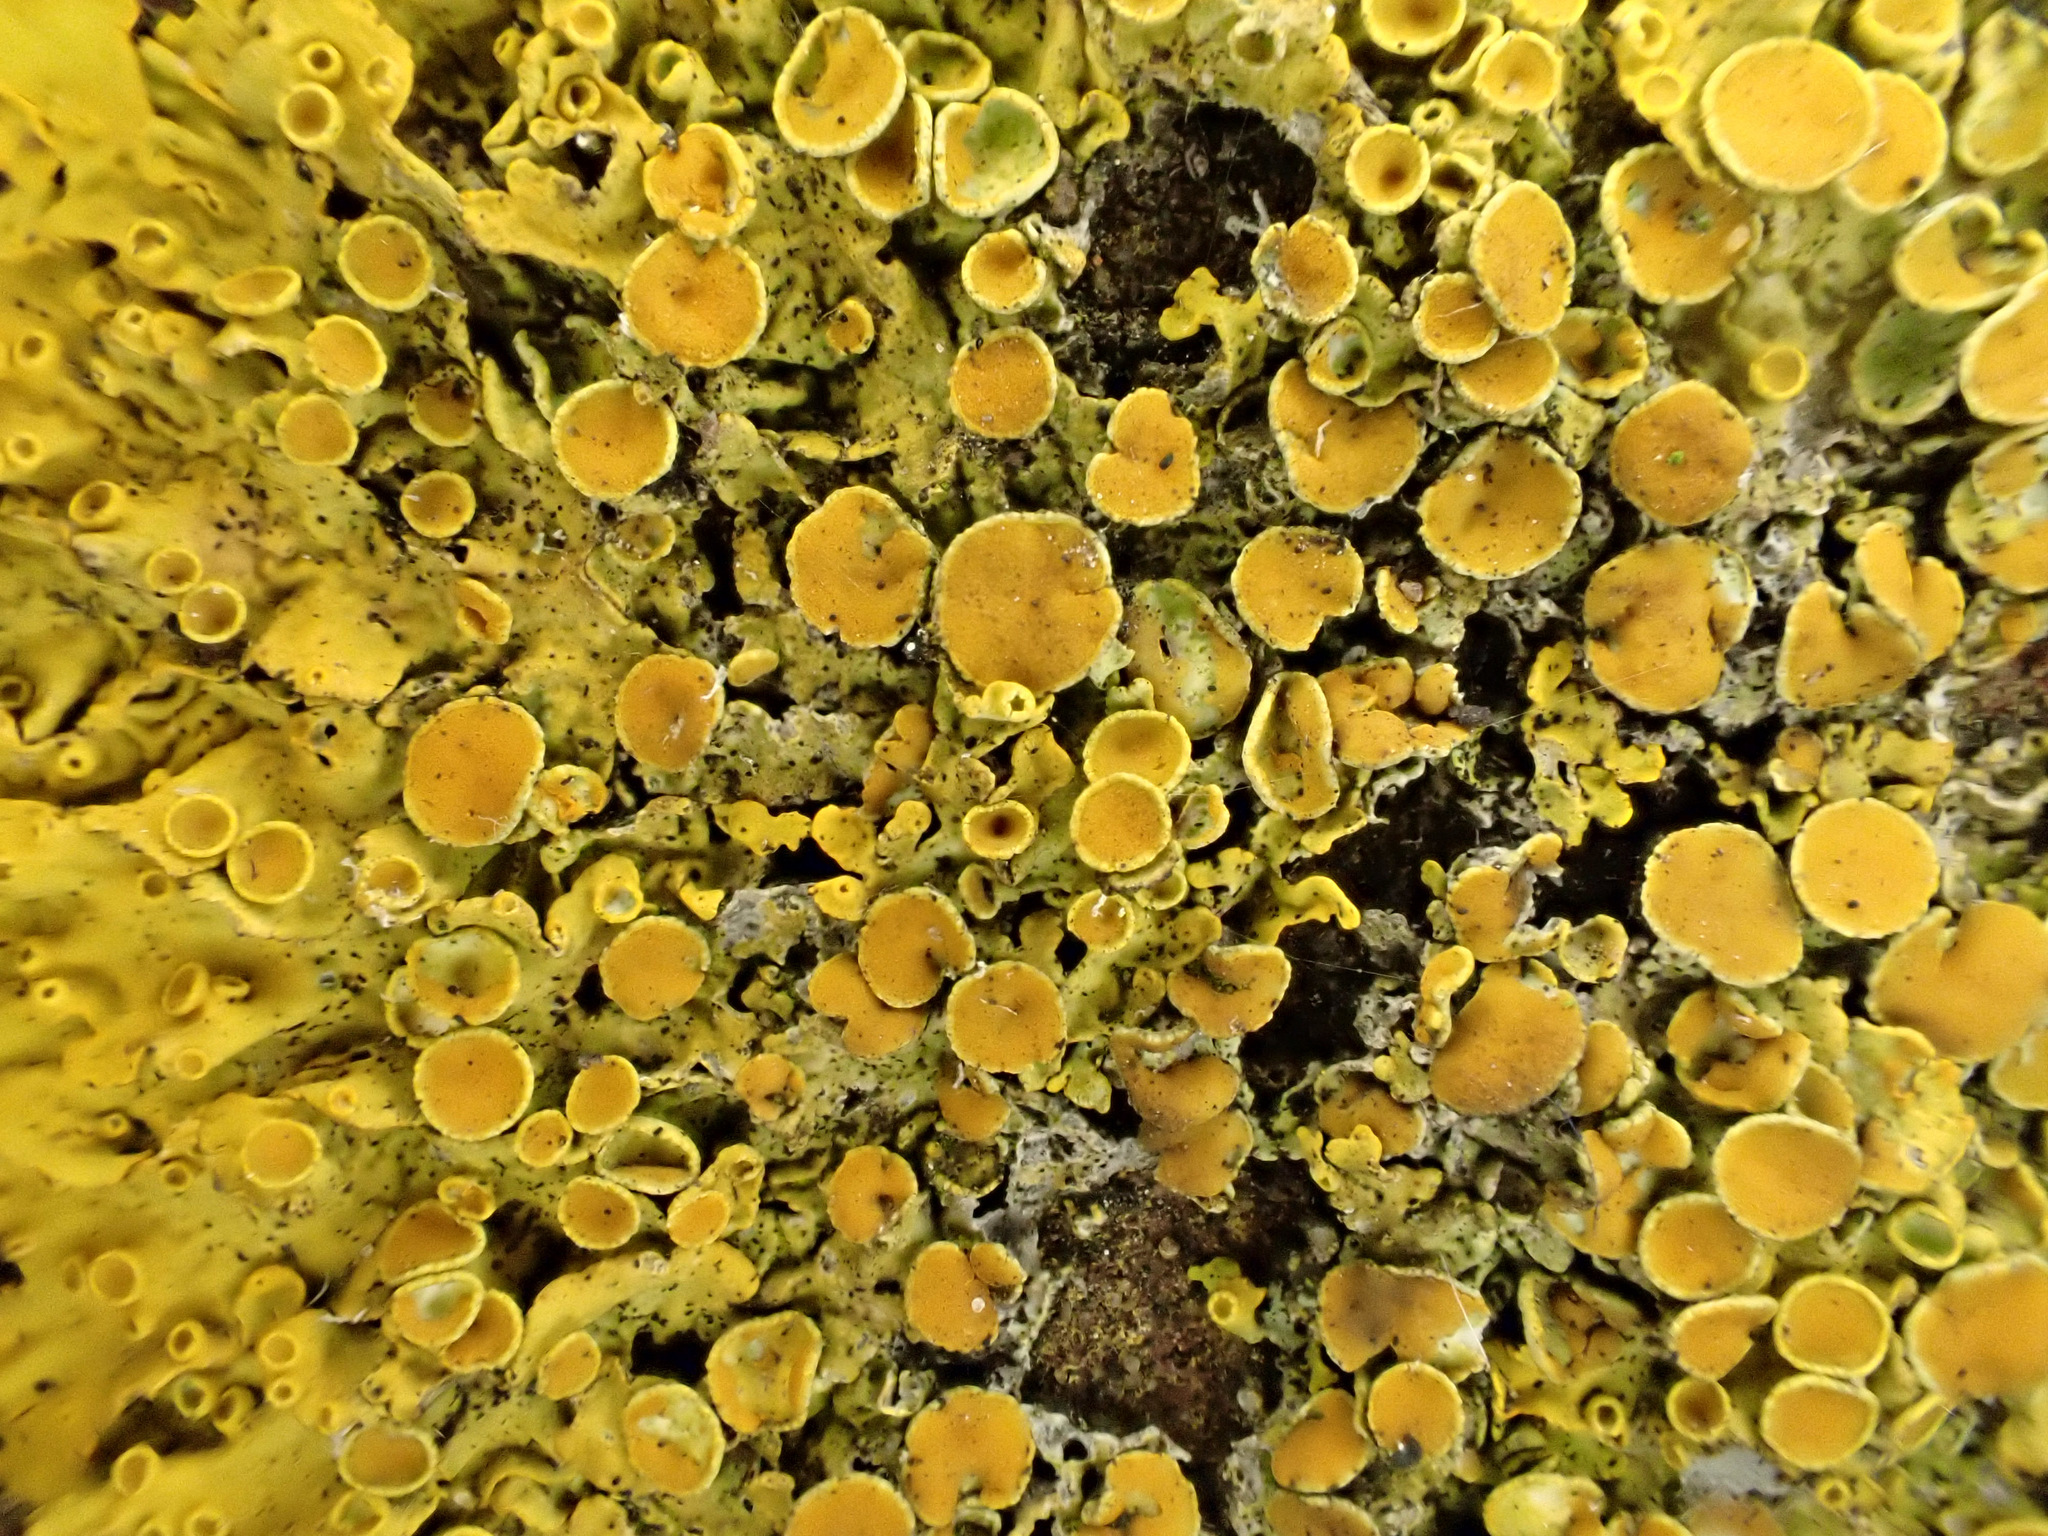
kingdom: Fungi
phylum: Ascomycota
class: Lecanoromycetes
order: Teloschistales
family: Teloschistaceae
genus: Xanthoria
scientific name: Xanthoria parietina
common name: Common orange lichen
